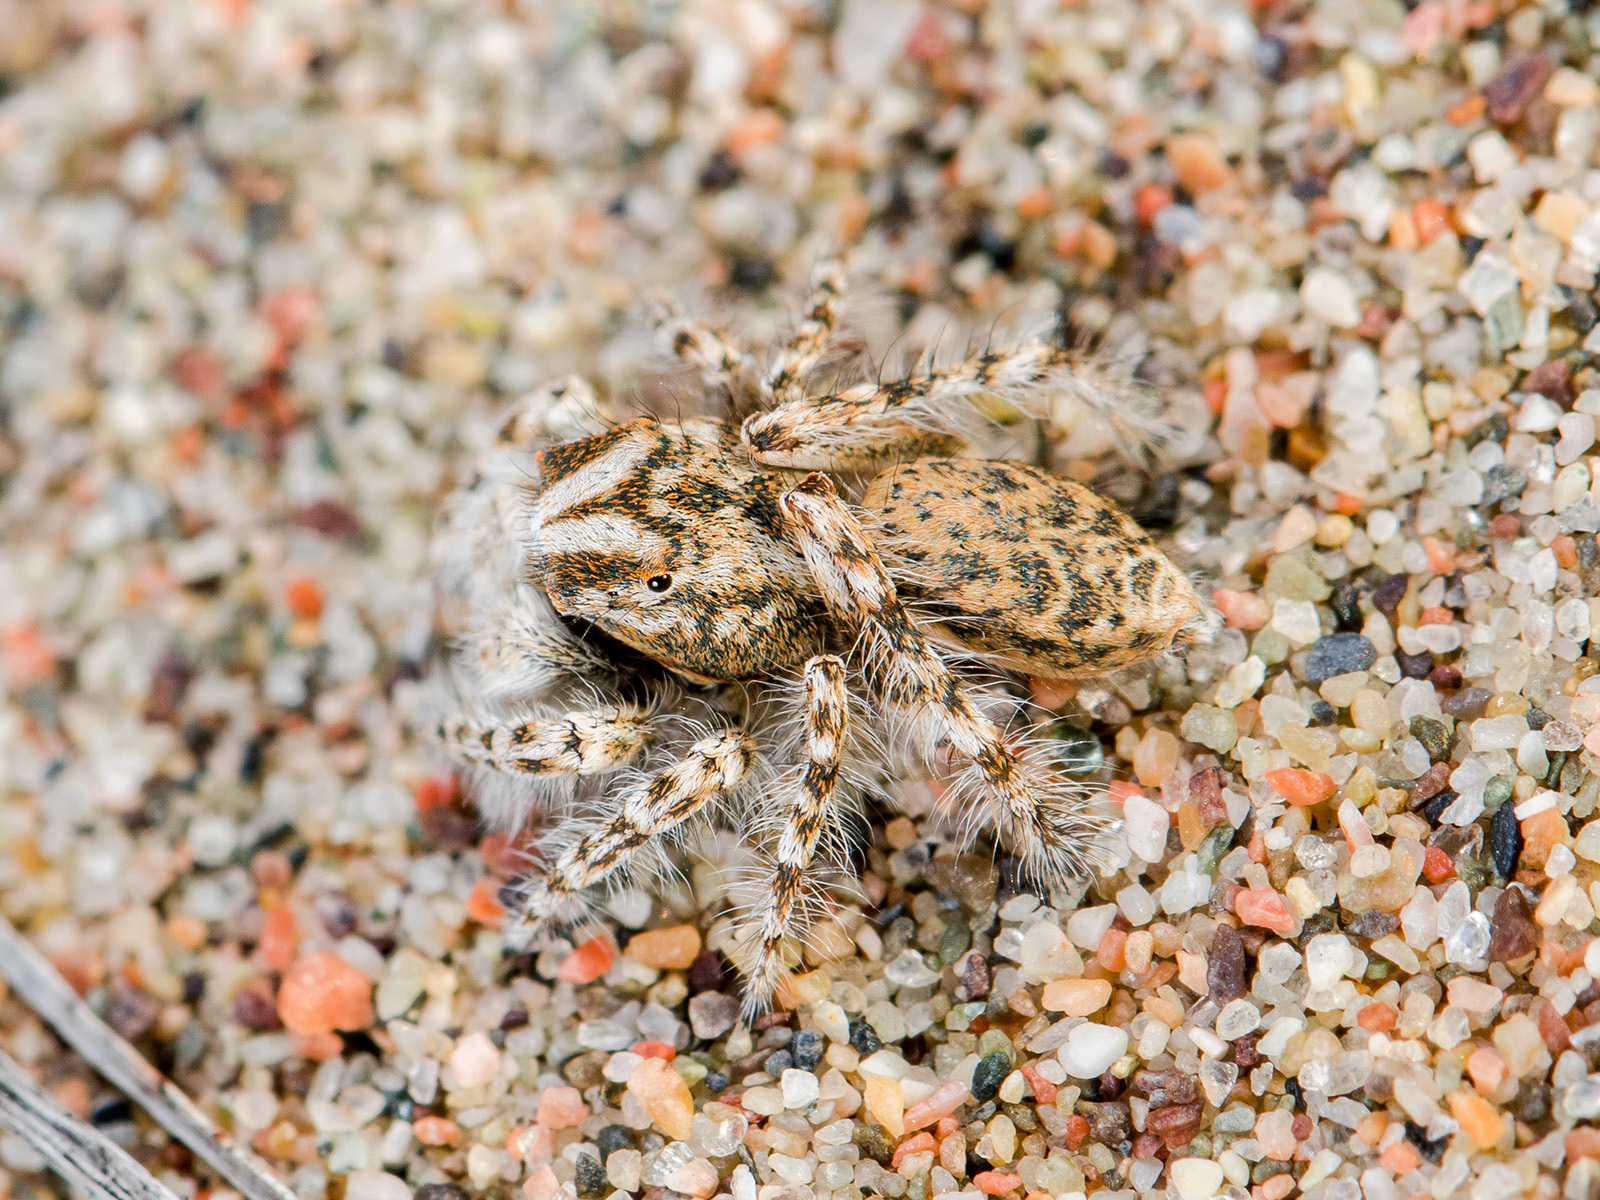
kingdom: Animalia
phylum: Arthropoda
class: Arachnida
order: Araneae
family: Salticidae
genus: Yllenus
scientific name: Yllenus uiguricus
